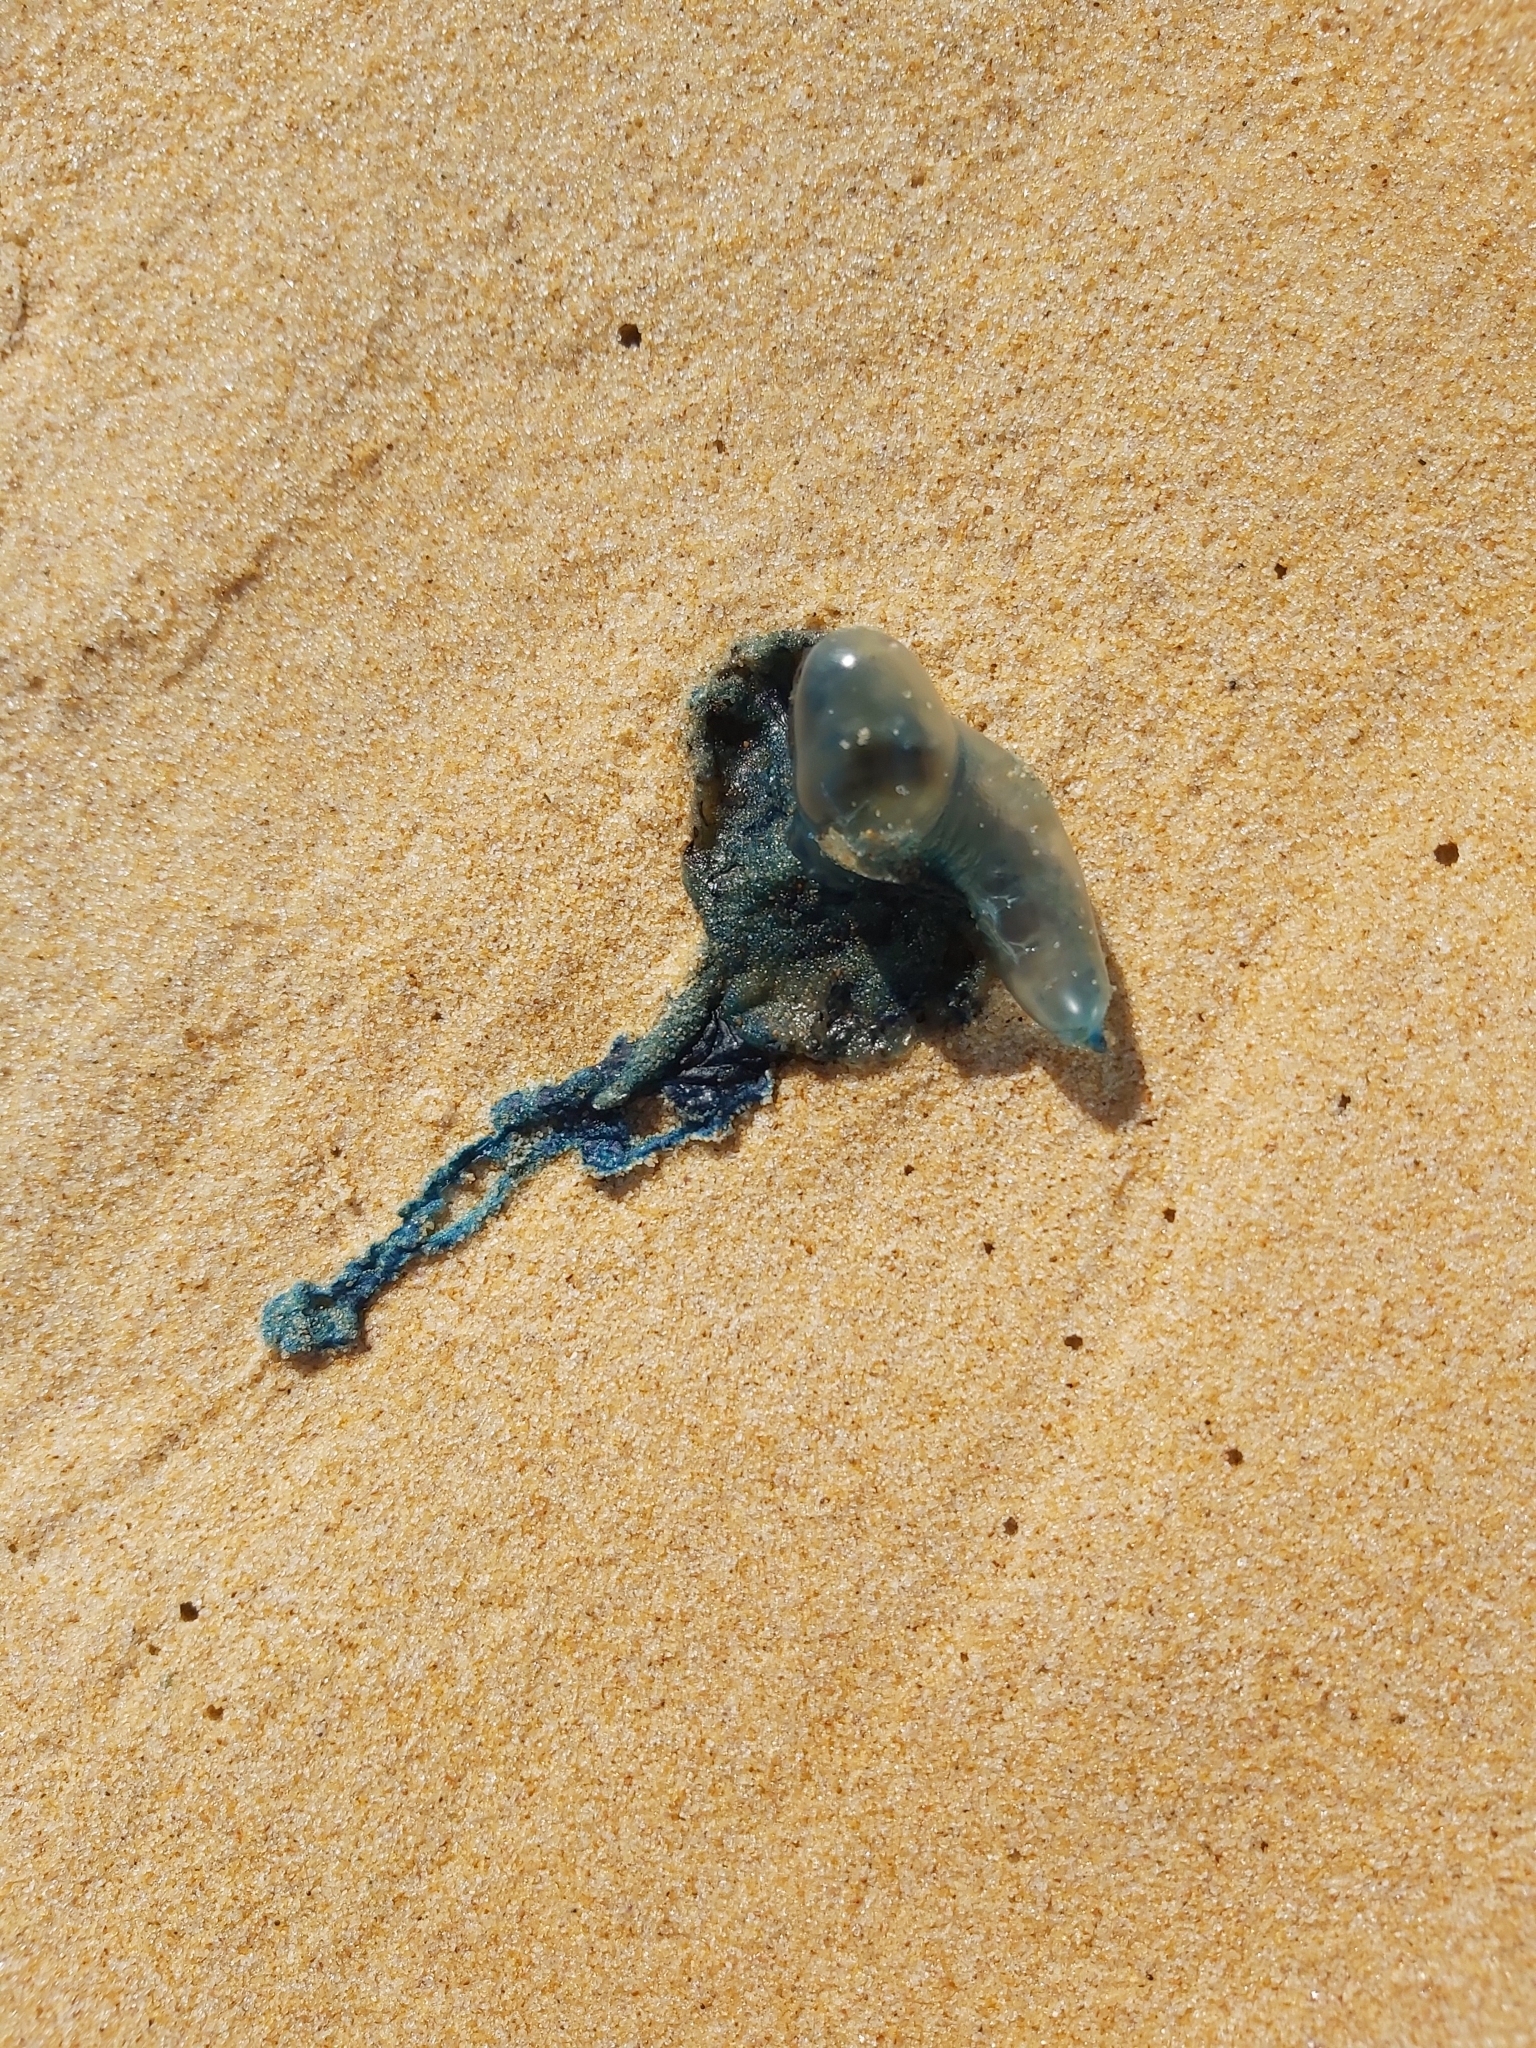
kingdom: Animalia
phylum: Cnidaria
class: Hydrozoa
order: Siphonophorae
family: Physaliidae
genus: Physalia
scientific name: Physalia physalis
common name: Portuguese man-of-war
